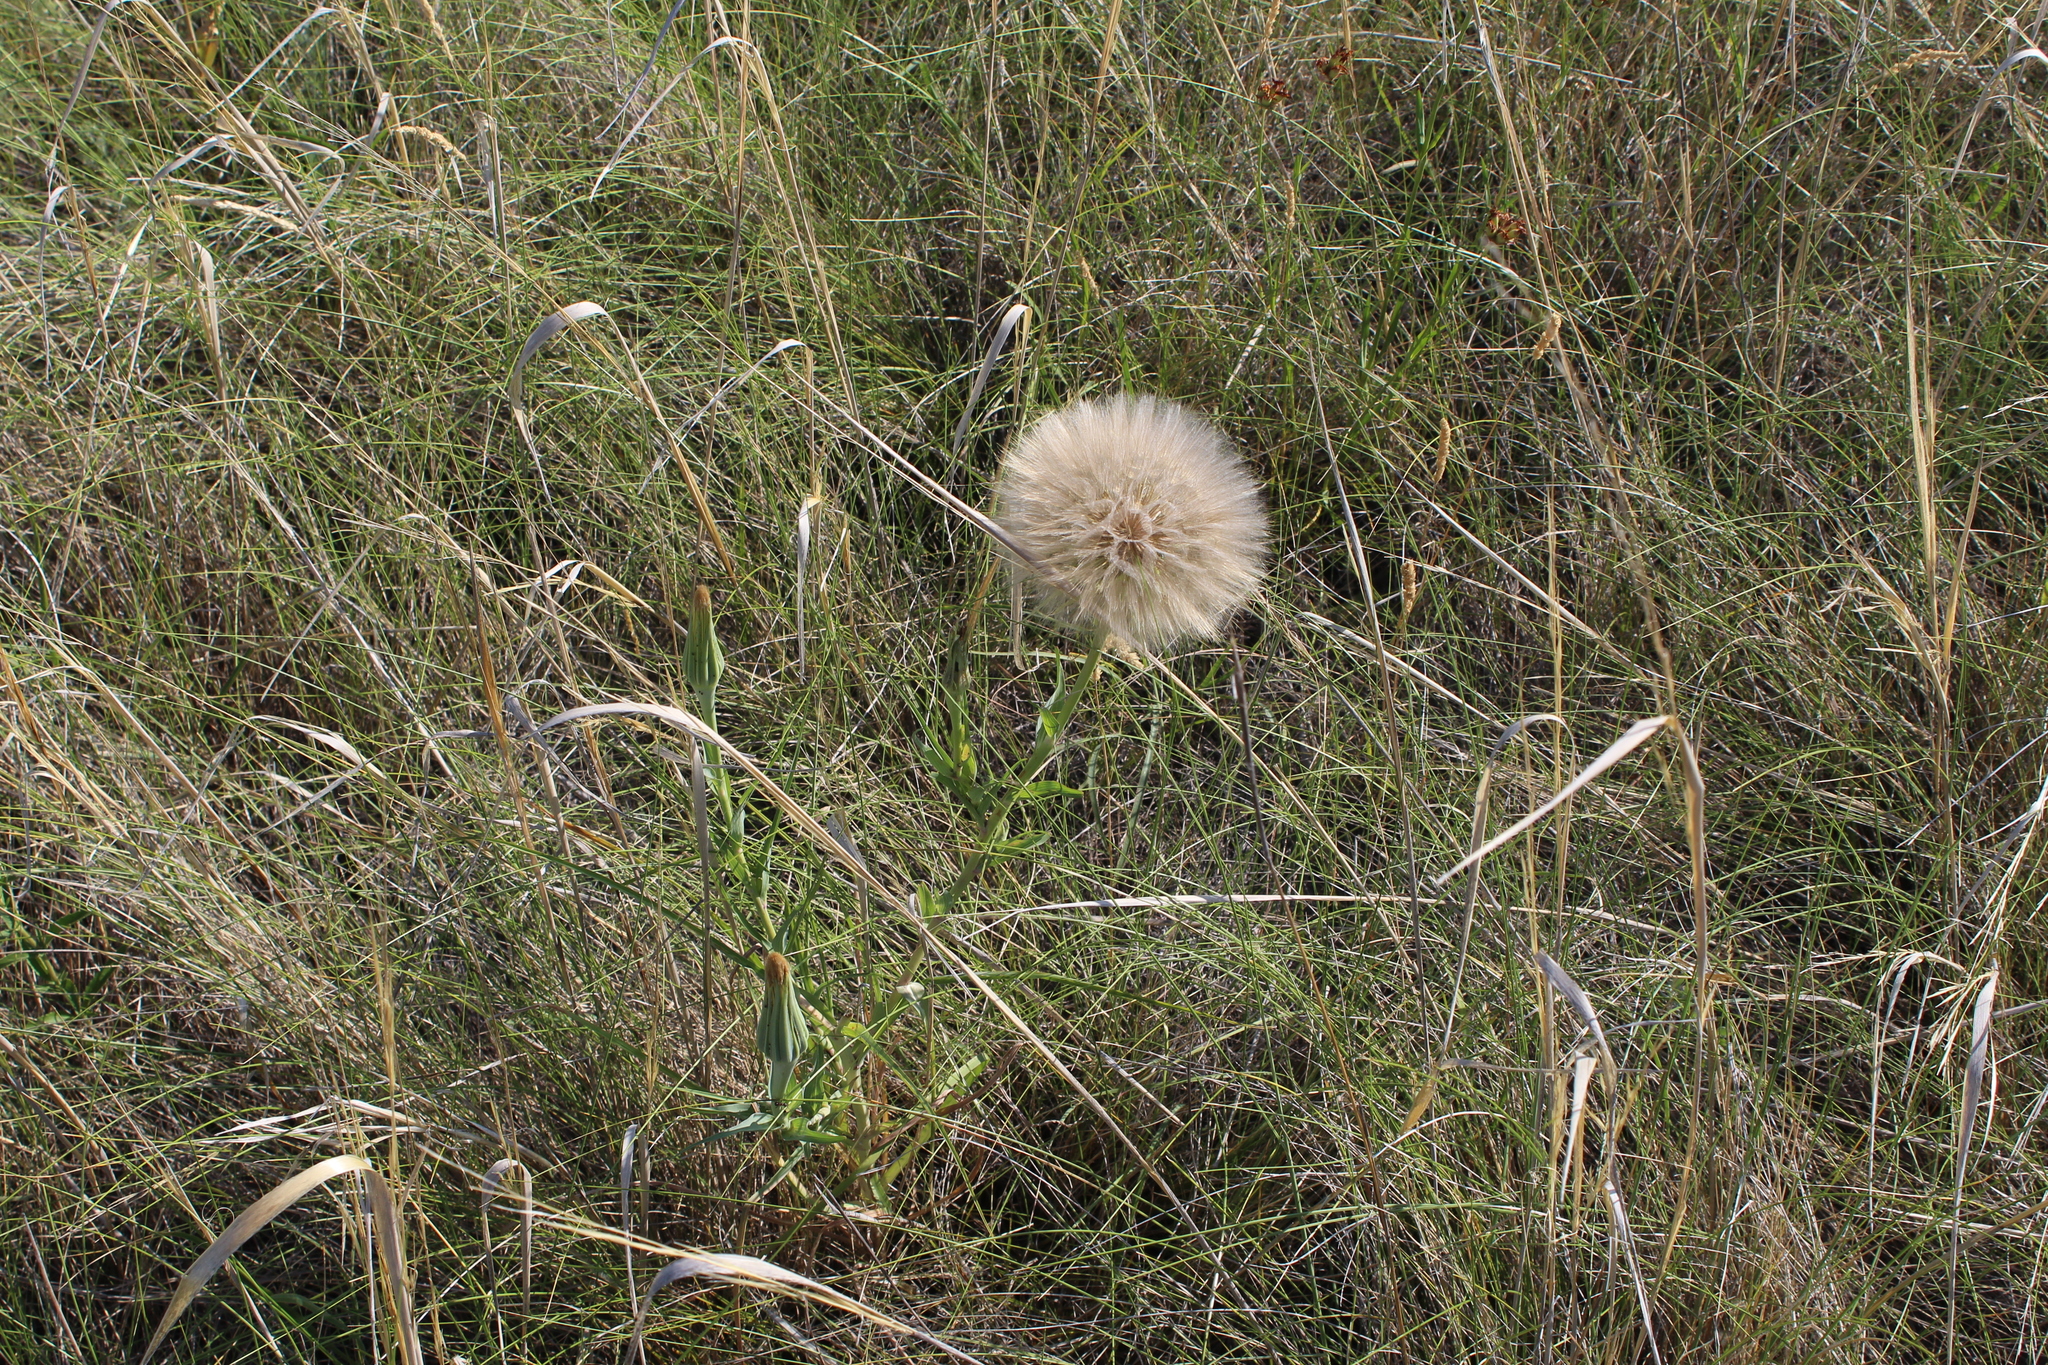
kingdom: Plantae
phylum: Tracheophyta
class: Magnoliopsida
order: Asterales
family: Asteraceae
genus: Tragopogon
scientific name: Tragopogon dubius
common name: Yellow salsify
